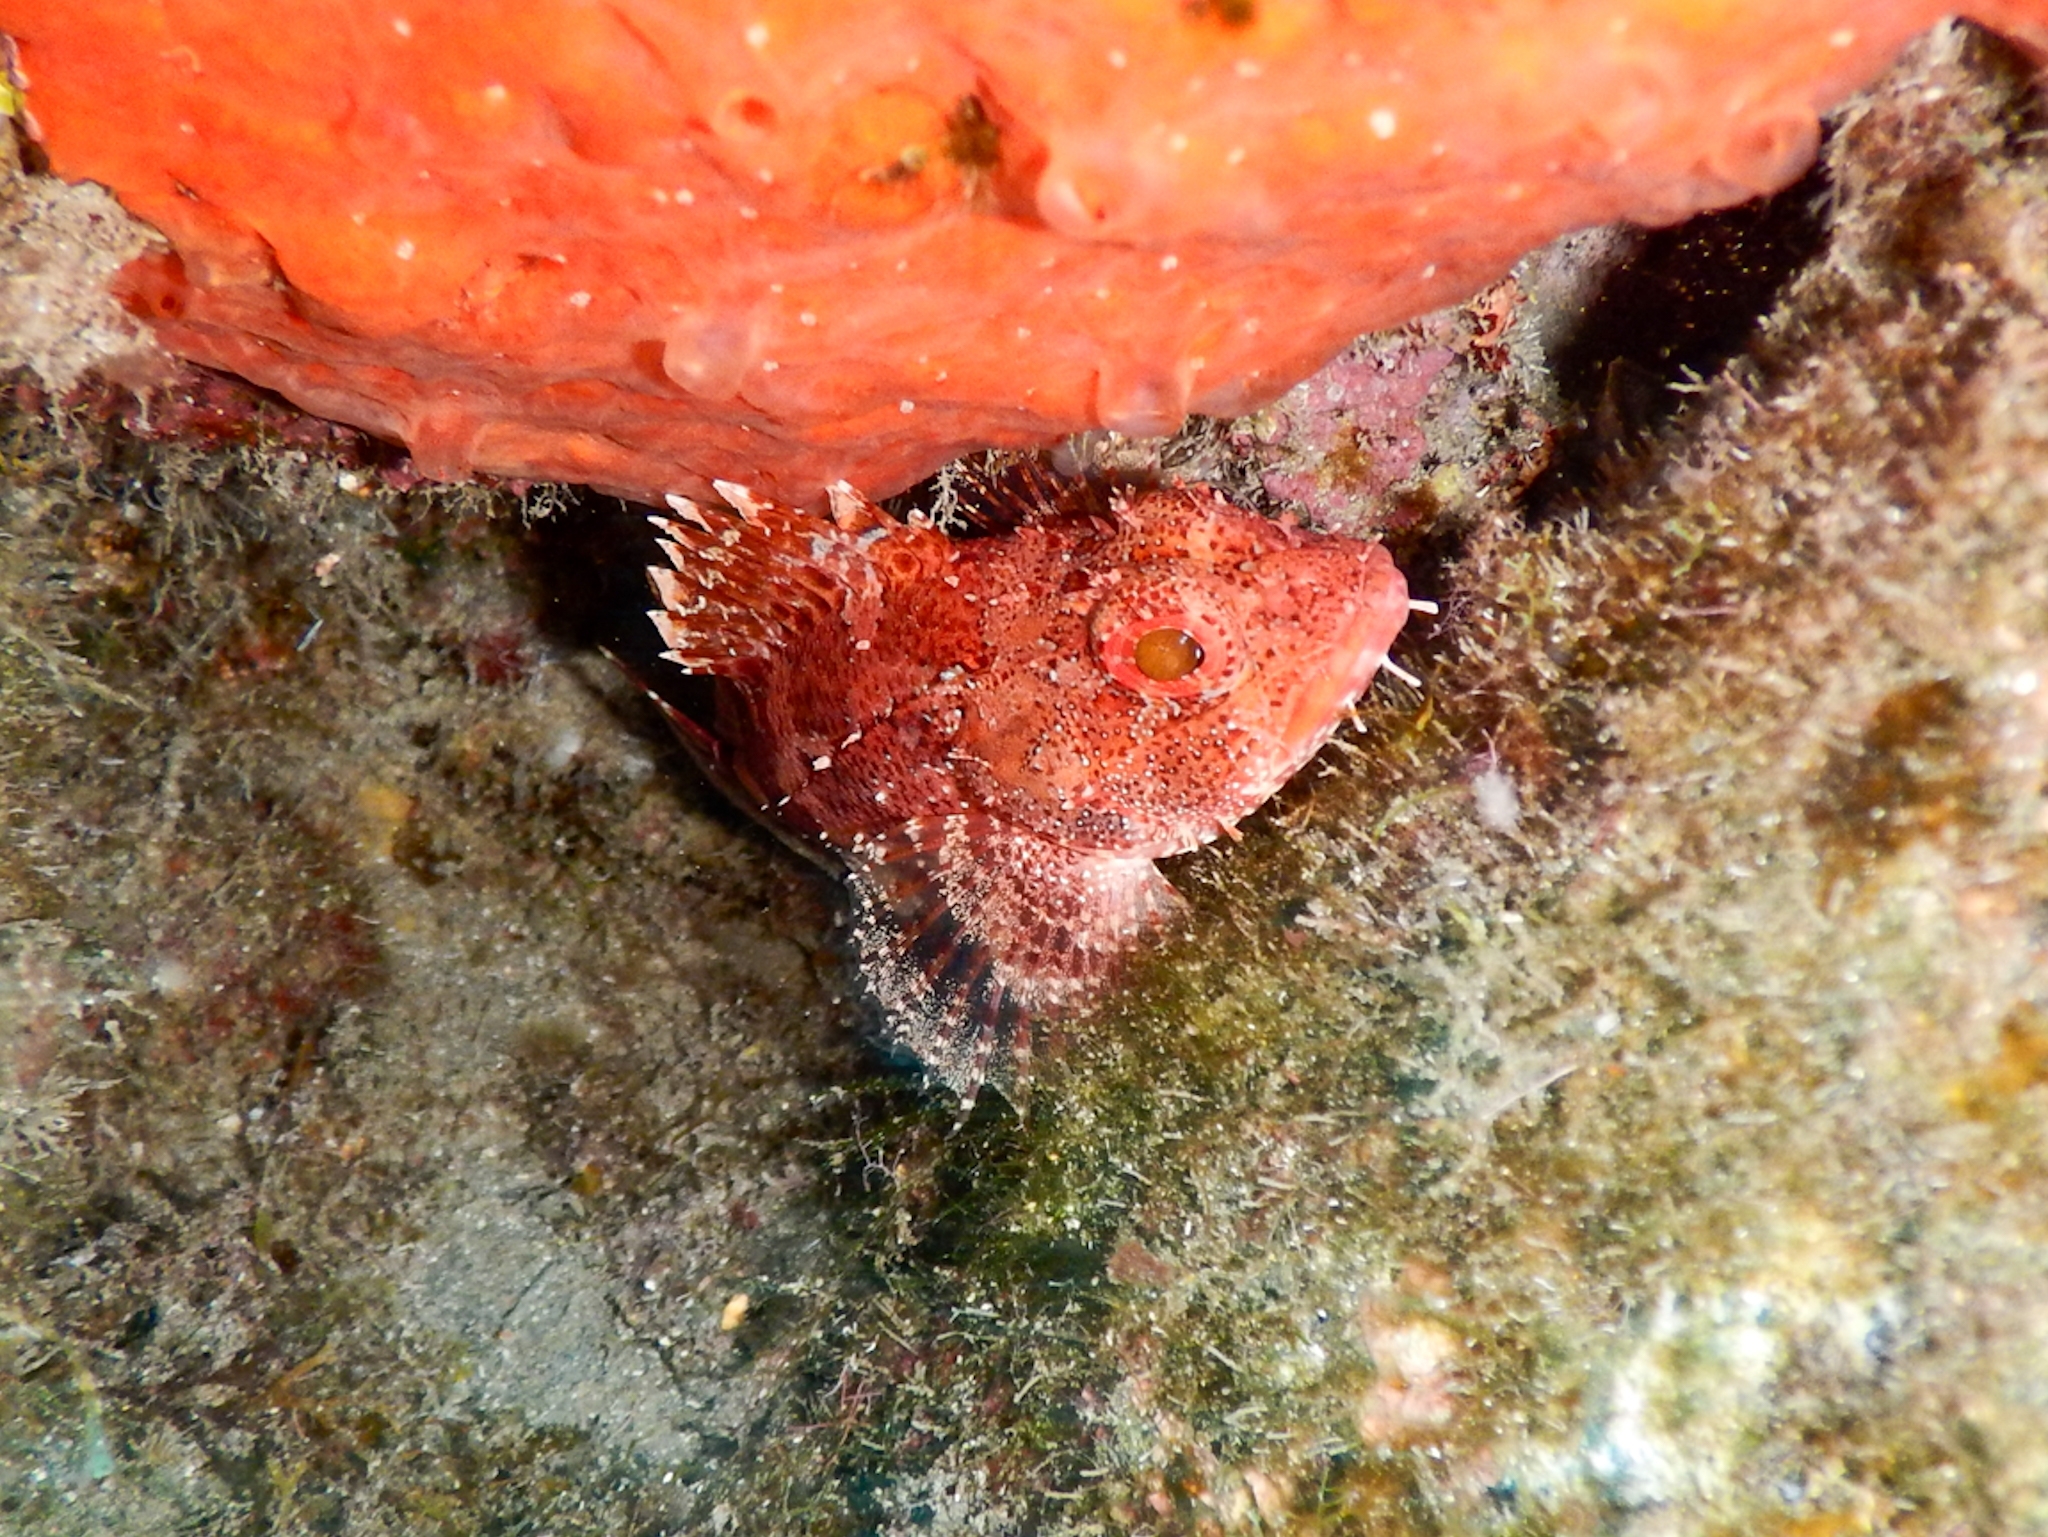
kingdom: Animalia
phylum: Chordata
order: Scorpaeniformes
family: Scorpaenidae
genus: Scorpaena
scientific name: Scorpaena maderensis
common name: Madeira rockfish
